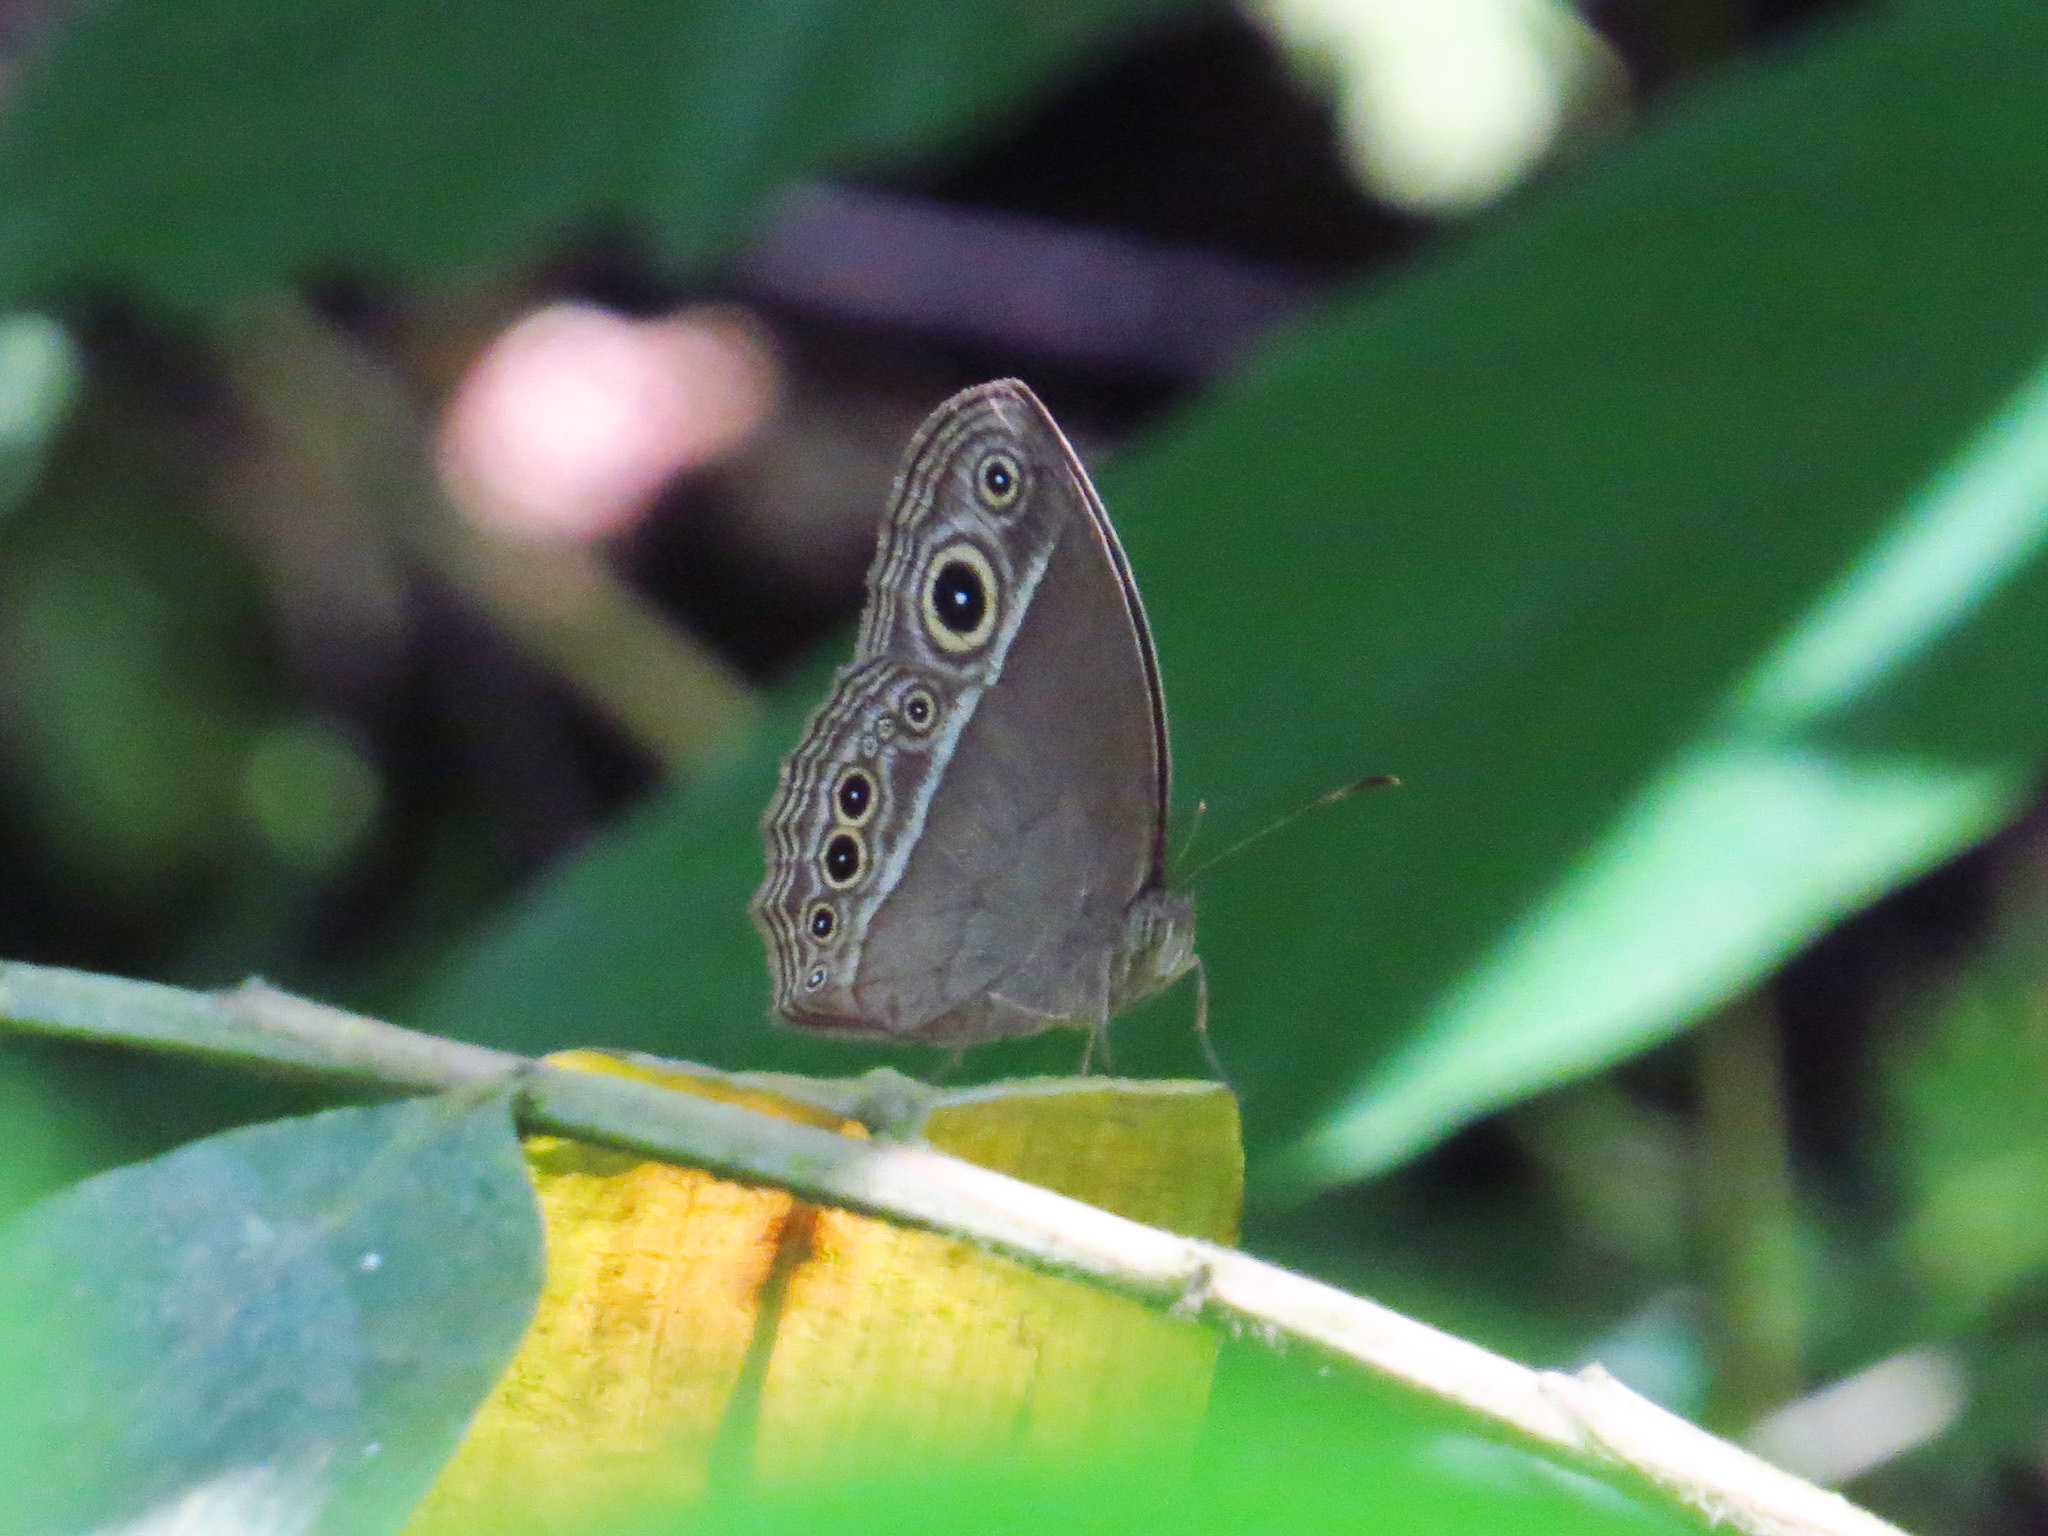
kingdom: Animalia
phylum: Arthropoda
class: Insecta
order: Lepidoptera
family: Nymphalidae
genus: Mycalesis
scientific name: Mycalesis mineus
